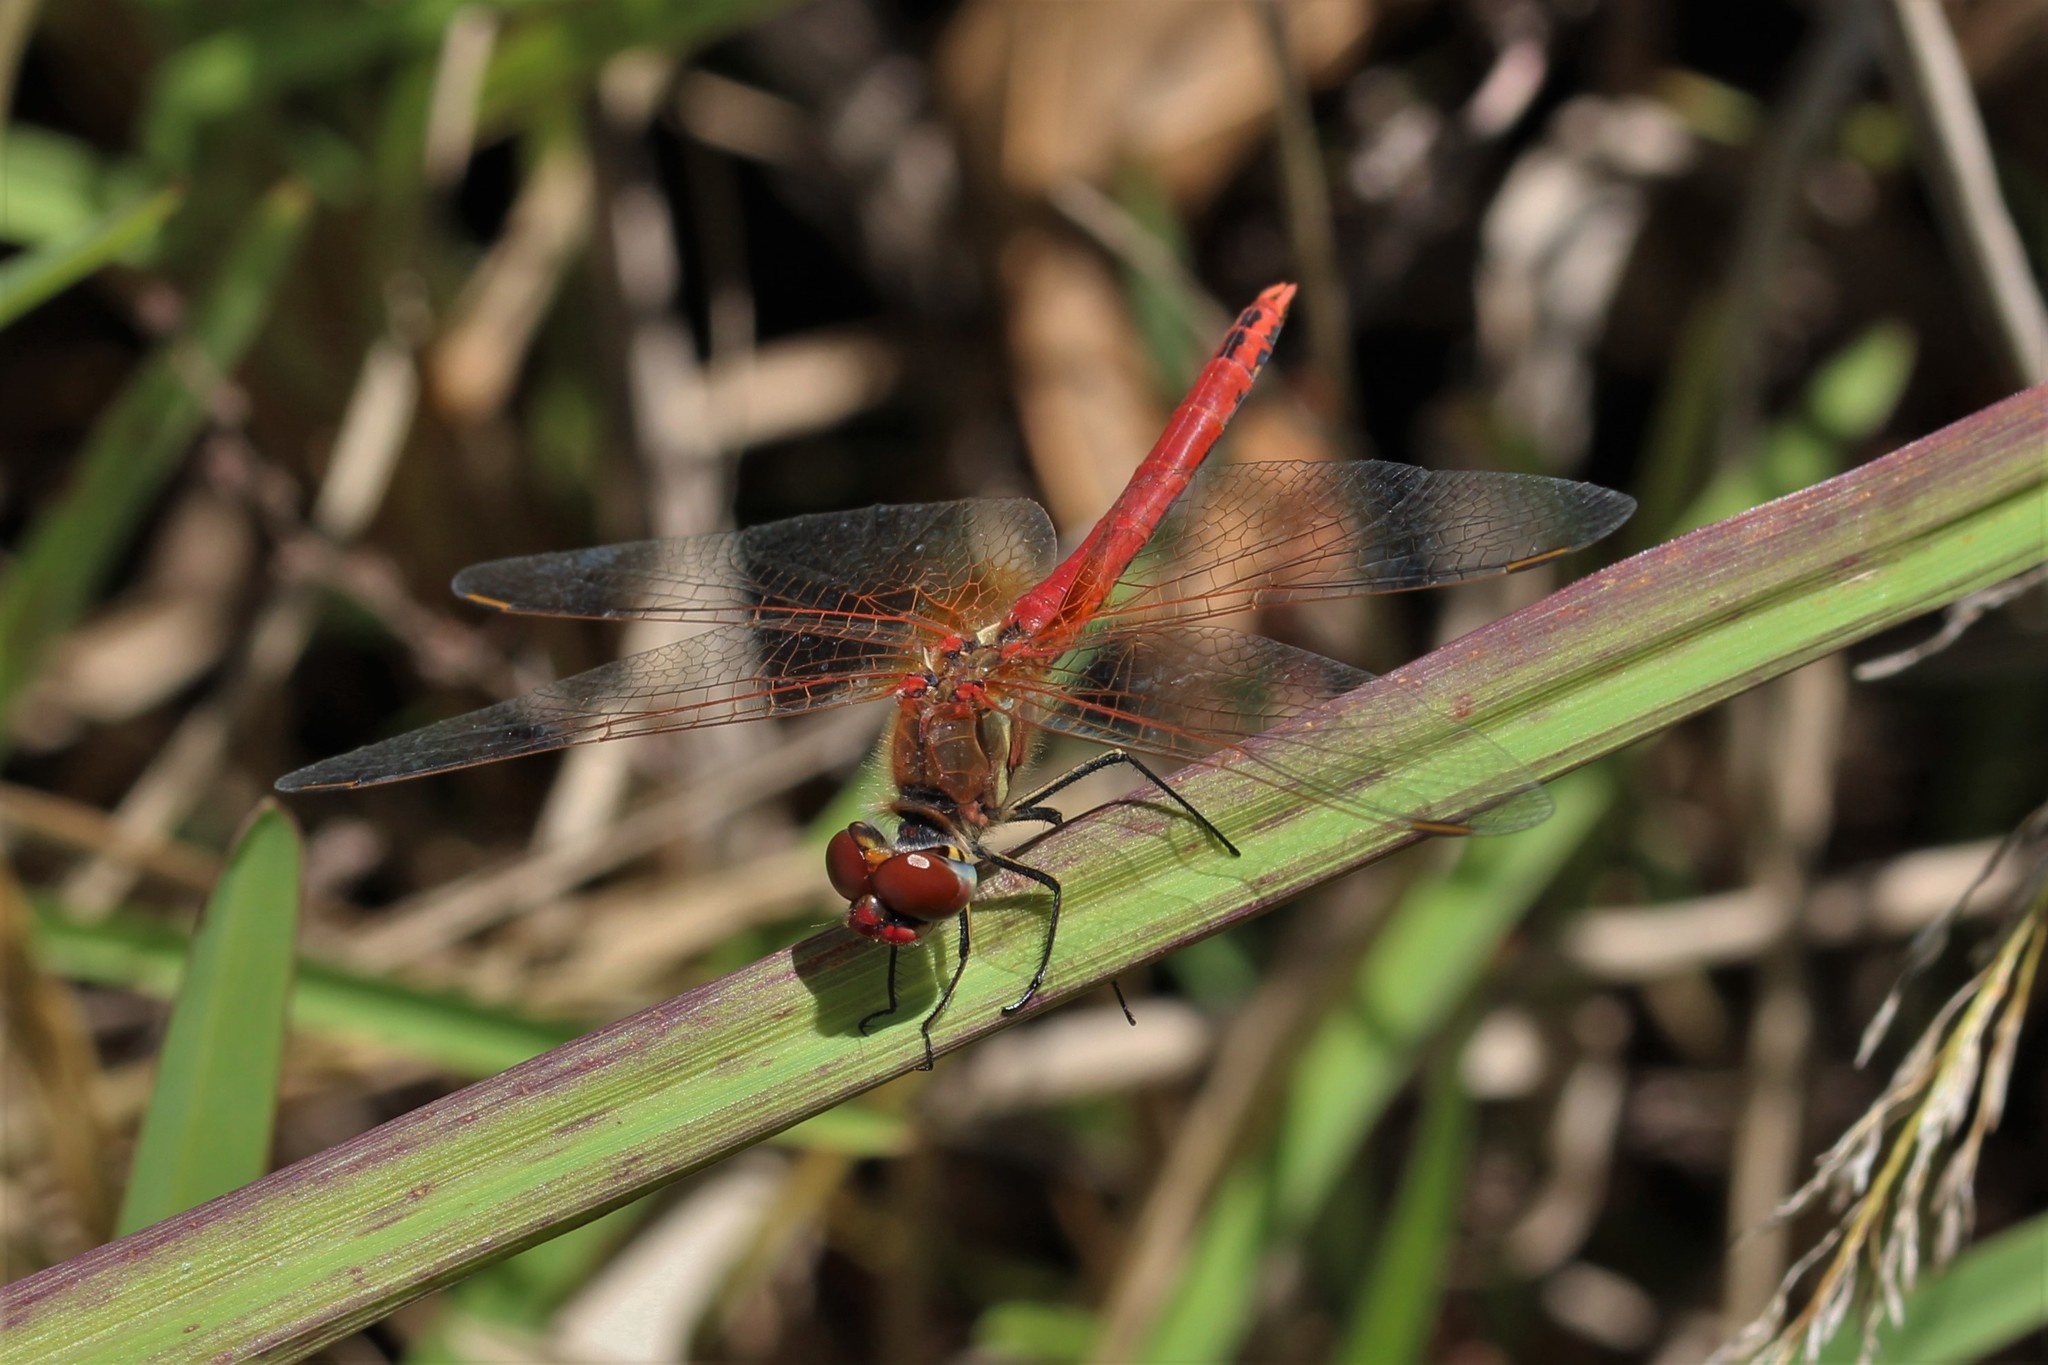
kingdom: Animalia
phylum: Arthropoda
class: Insecta
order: Odonata
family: Libellulidae
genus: Sympetrum
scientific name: Sympetrum fonscolombii
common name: Red-veined darter
